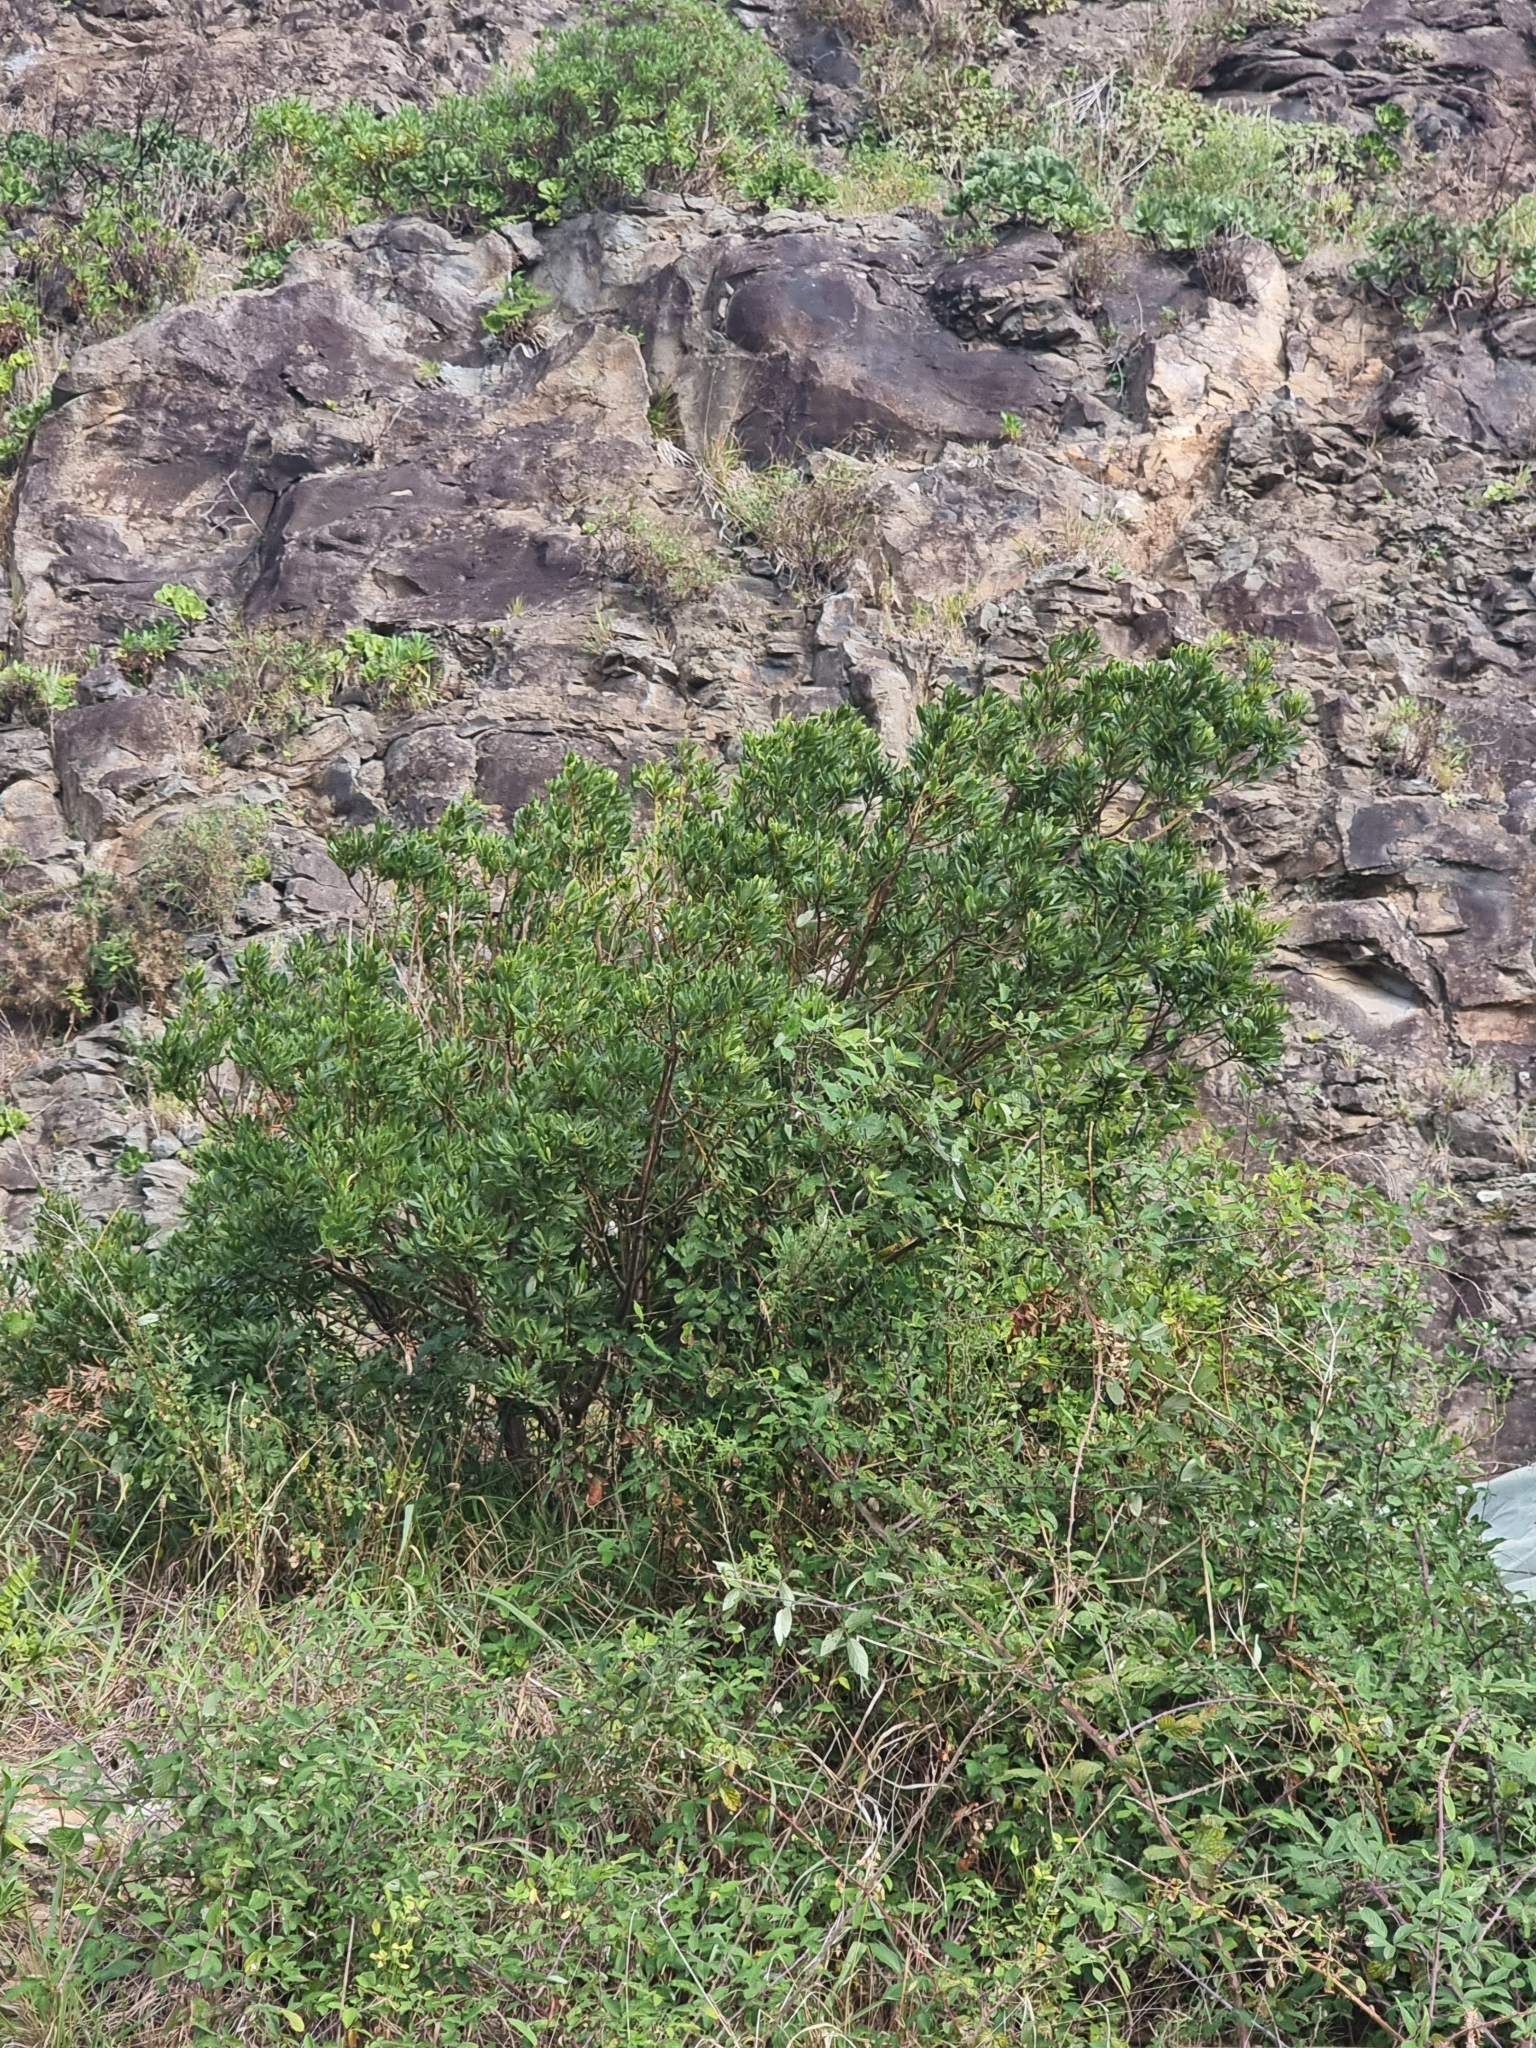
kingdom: Plantae
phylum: Tracheophyta
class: Magnoliopsida
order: Fagales
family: Myricaceae
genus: Morella
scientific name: Morella faya
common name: Firetree
